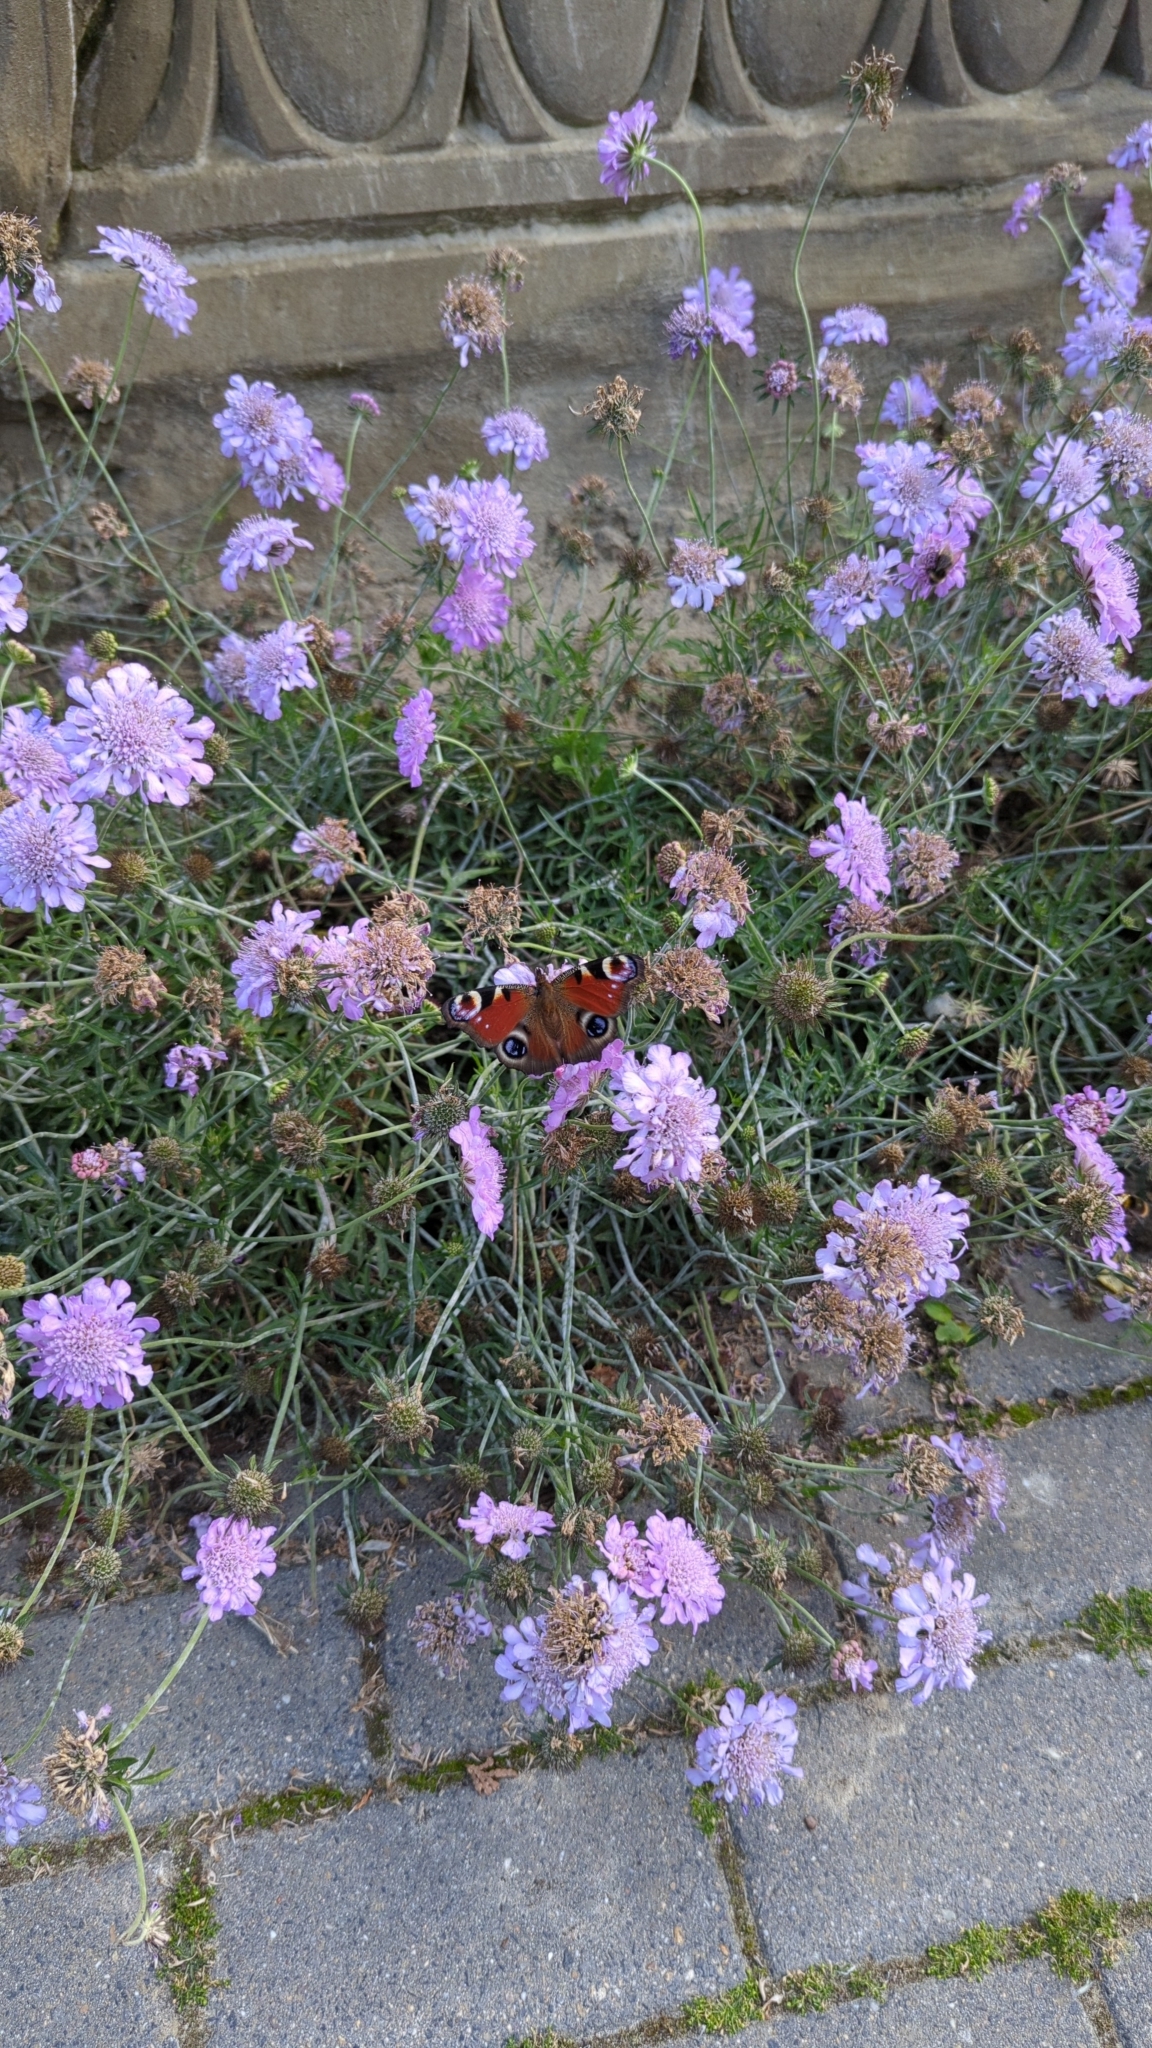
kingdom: Animalia
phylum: Arthropoda
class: Insecta
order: Lepidoptera
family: Nymphalidae
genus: Aglais
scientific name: Aglais io
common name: Peacock
